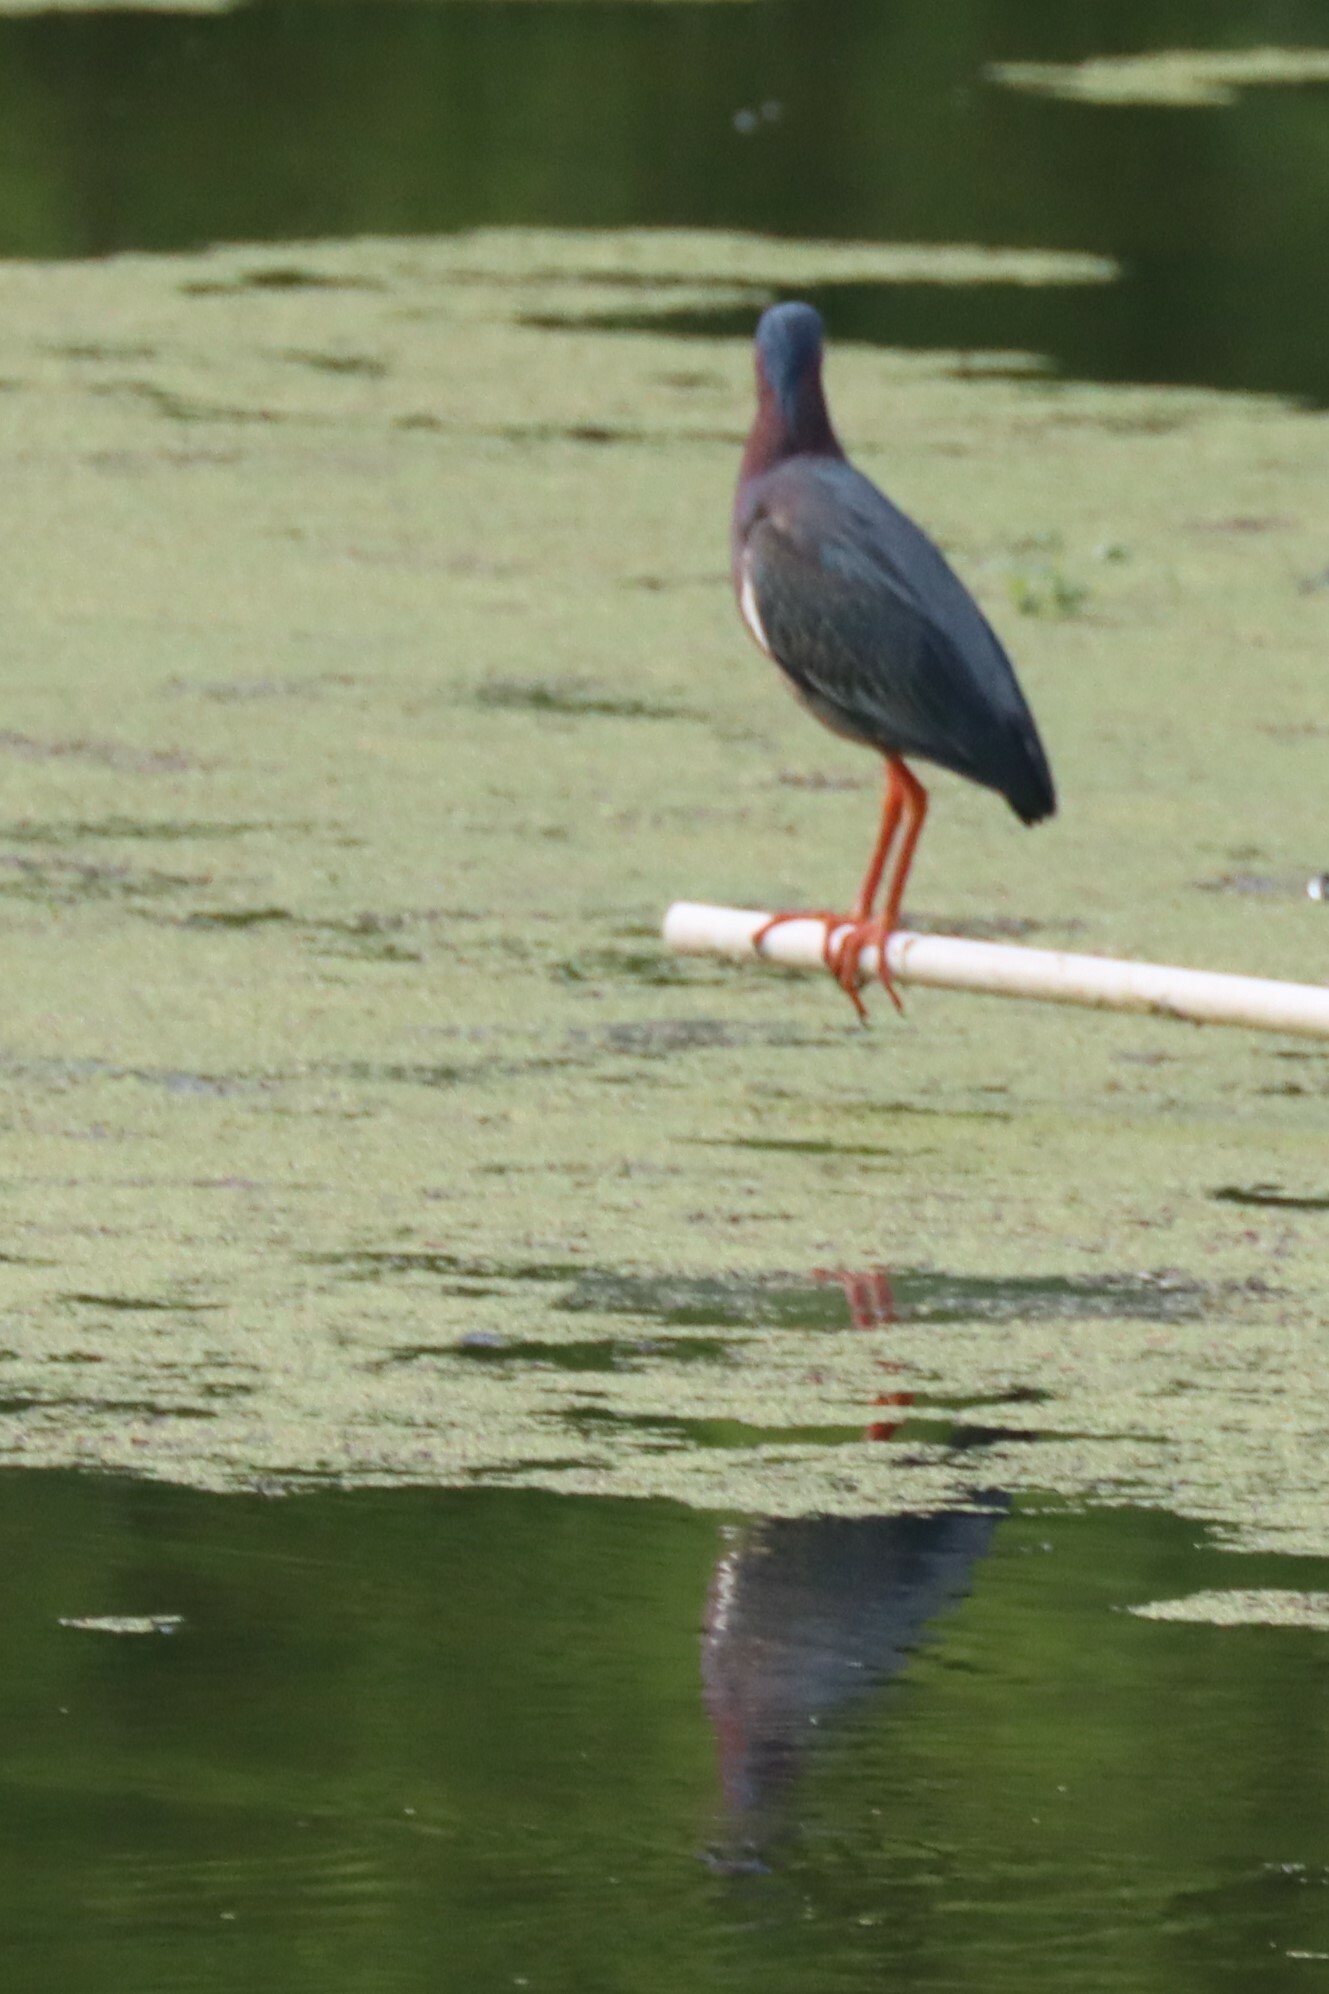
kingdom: Animalia
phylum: Chordata
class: Aves
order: Pelecaniformes
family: Ardeidae
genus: Butorides
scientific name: Butorides virescens
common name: Green heron
